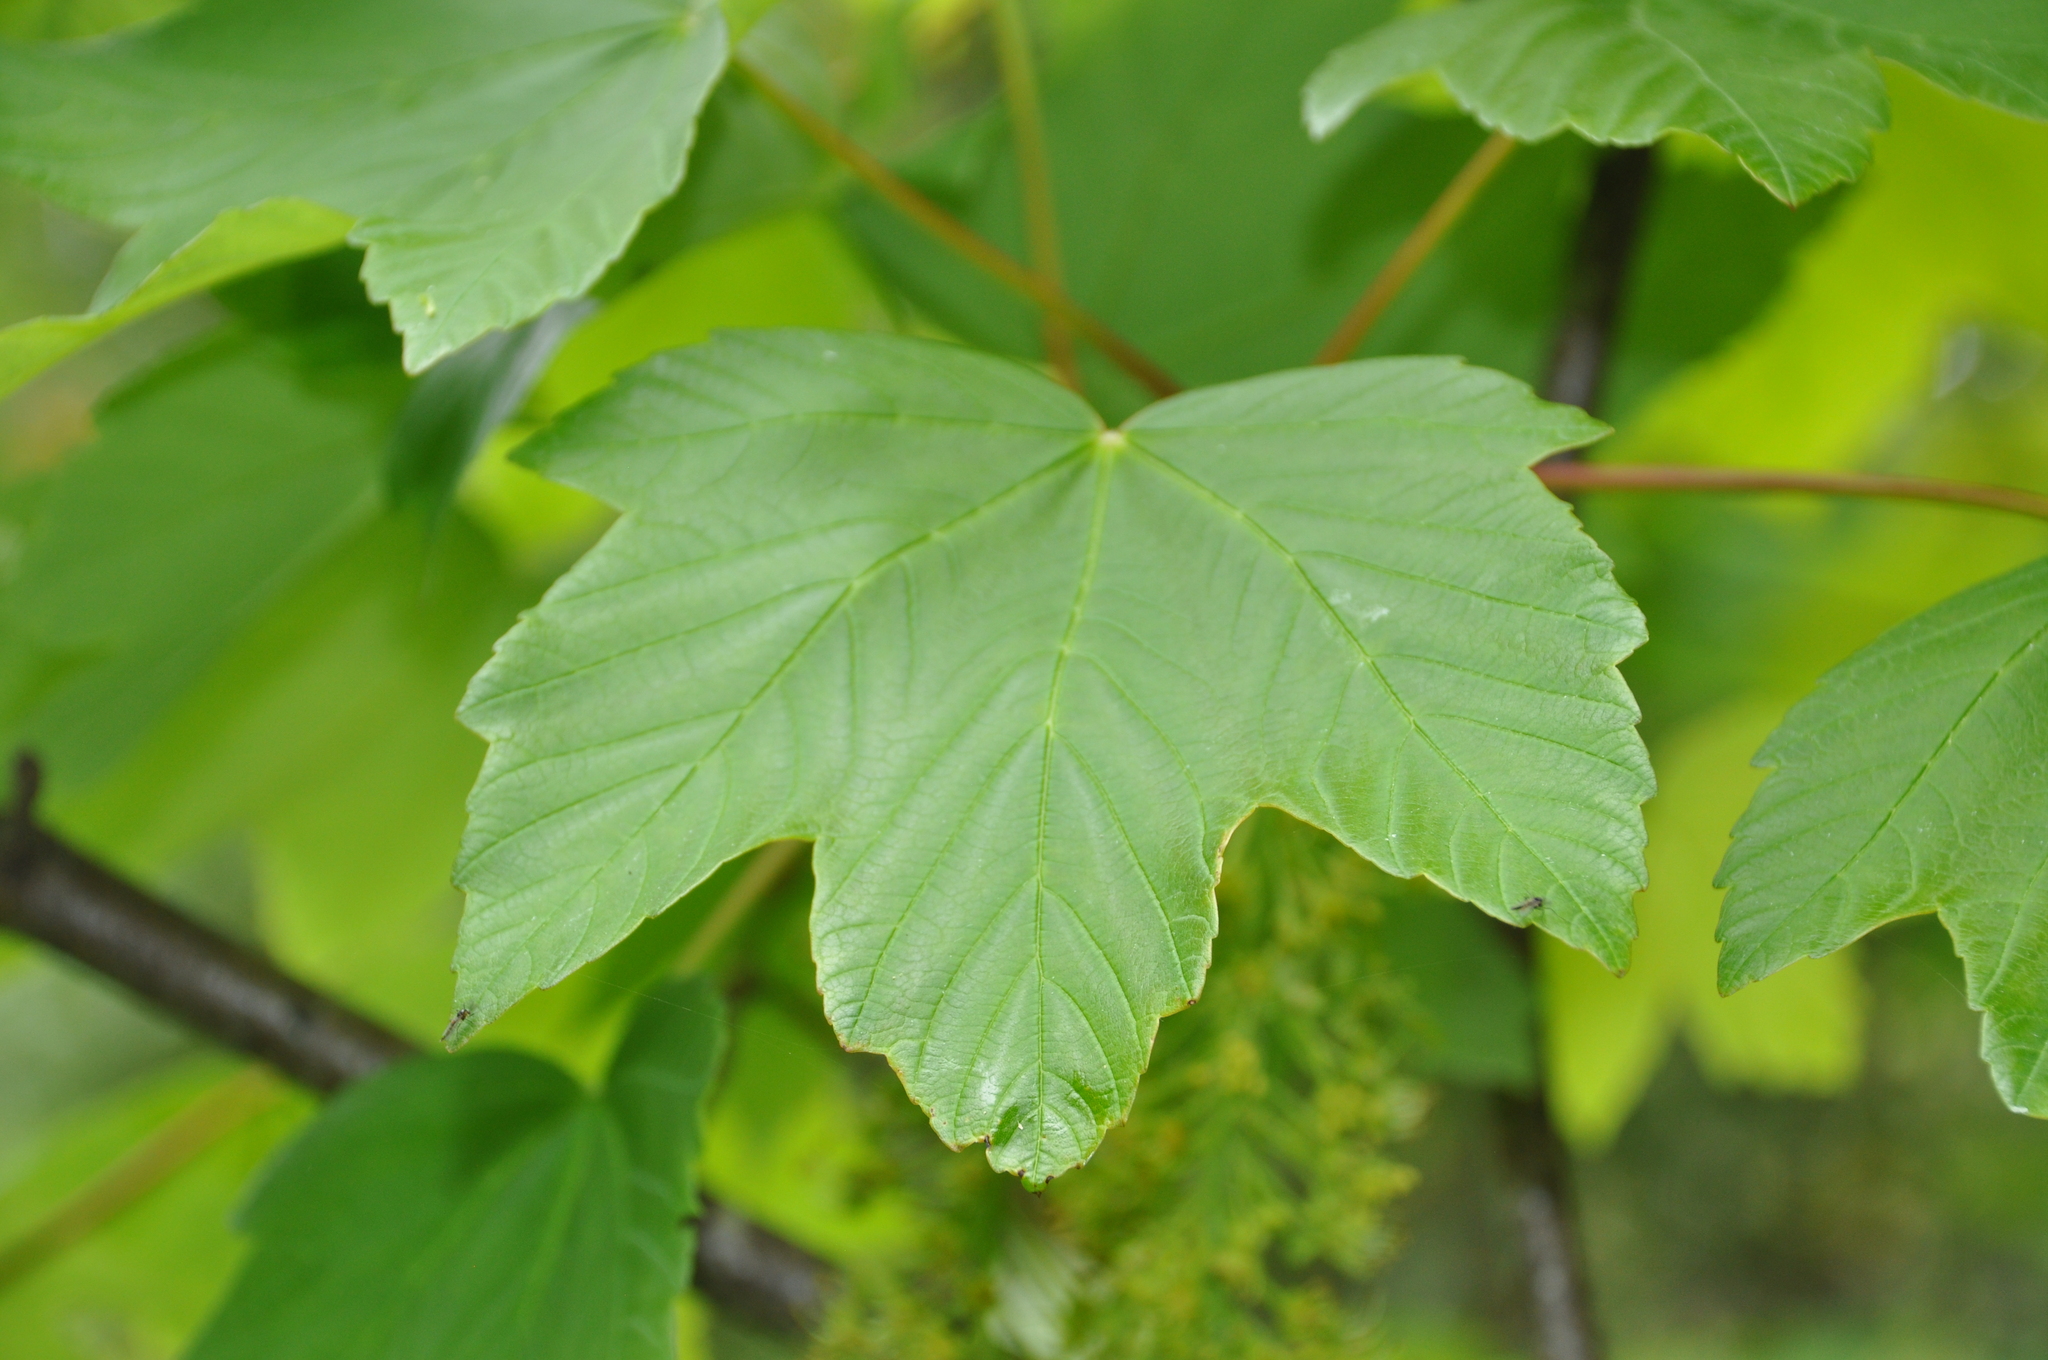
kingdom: Plantae
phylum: Tracheophyta
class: Magnoliopsida
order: Sapindales
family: Sapindaceae
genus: Acer
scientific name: Acer pseudoplatanus
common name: Sycamore
